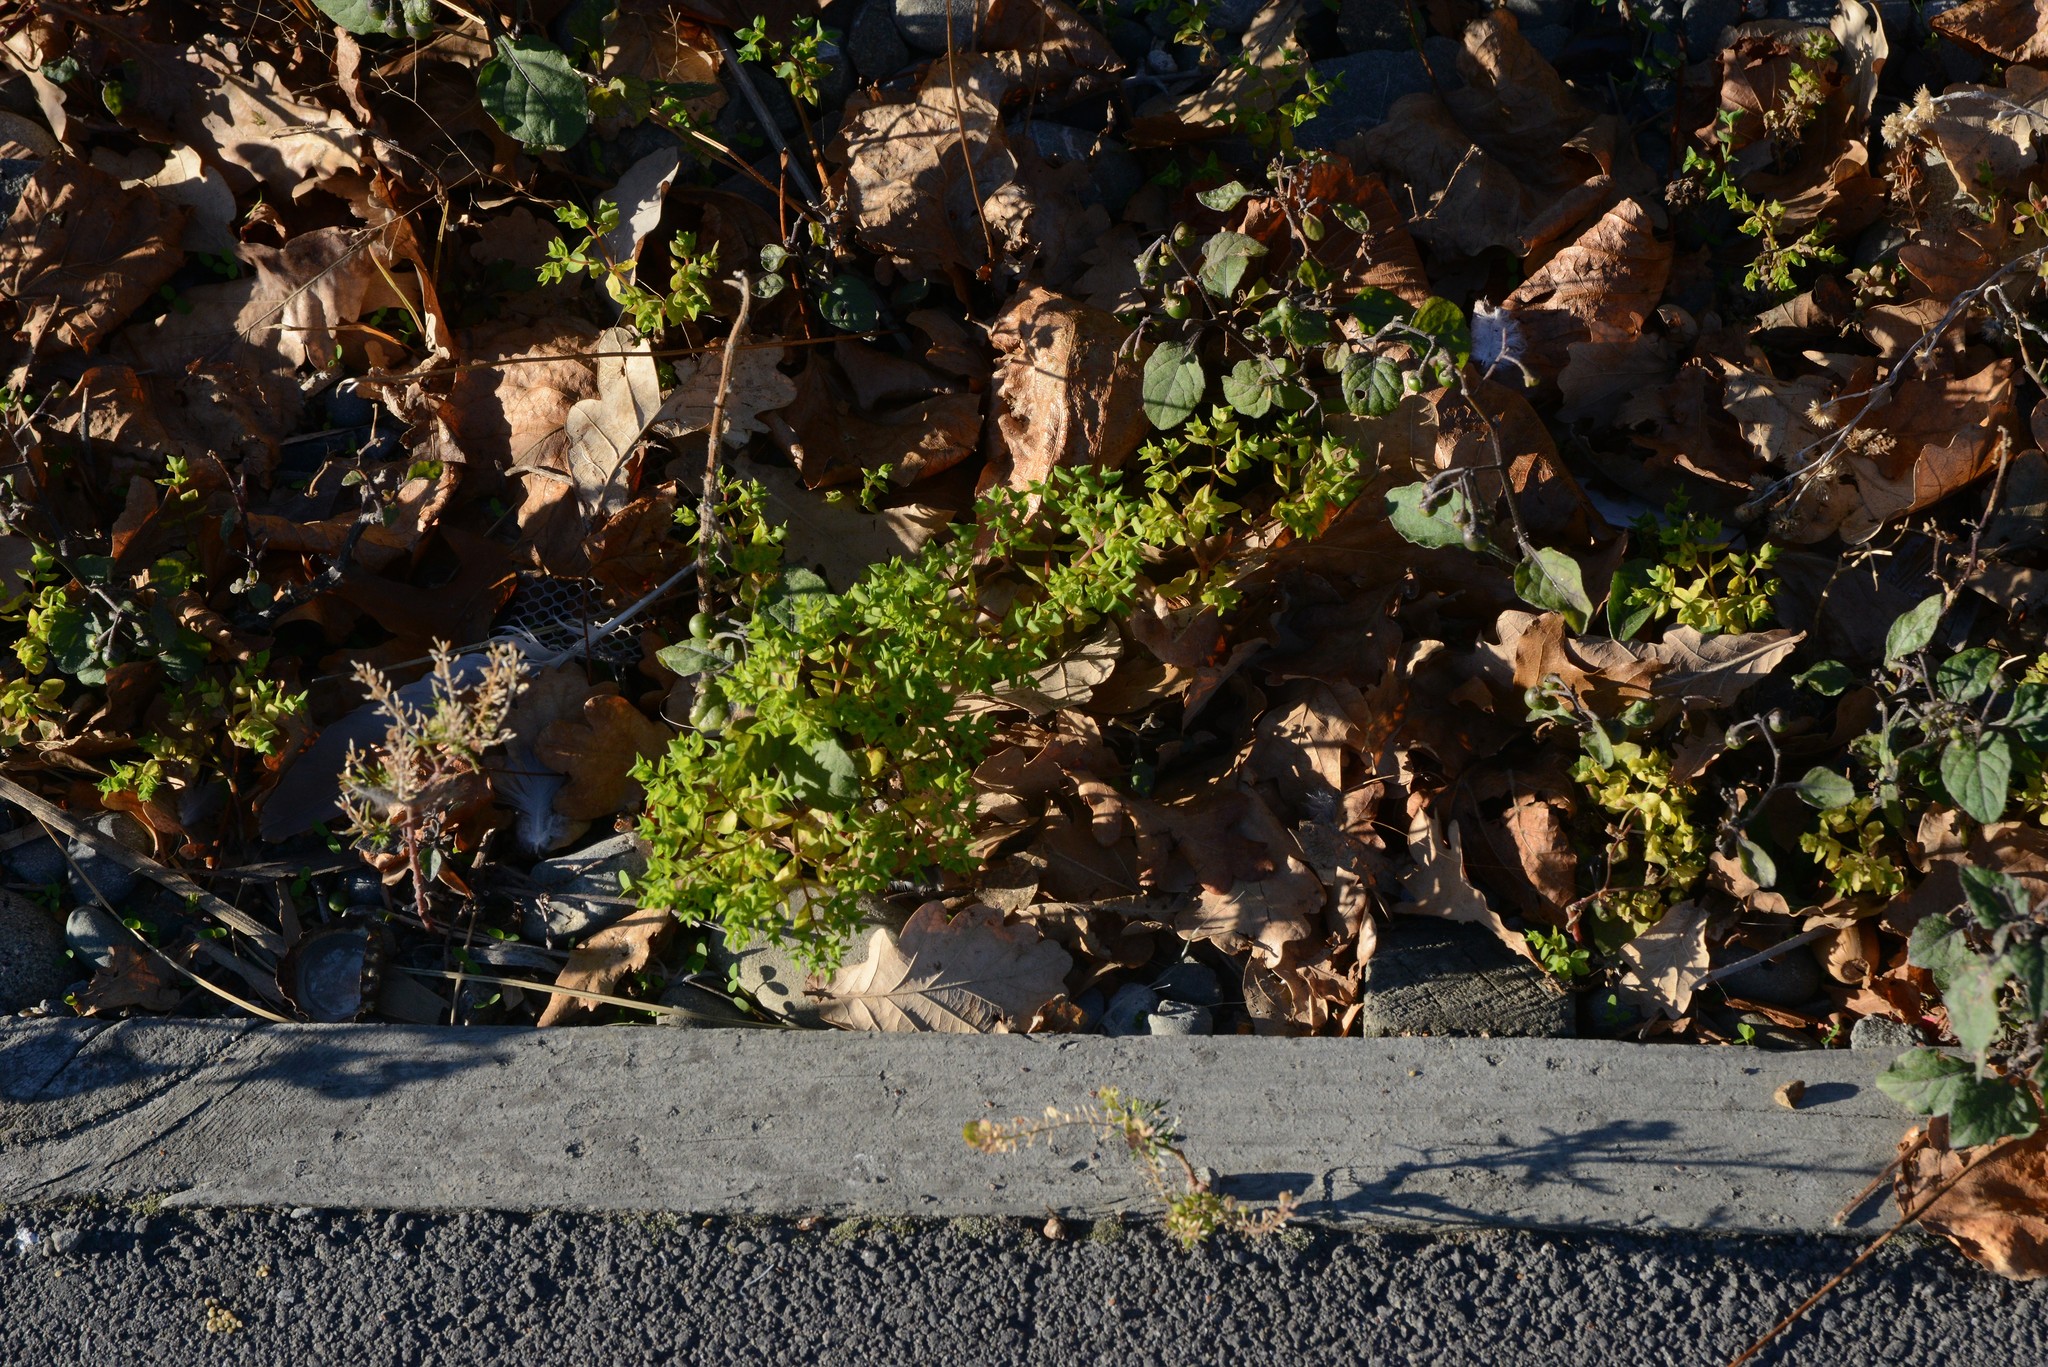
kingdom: Plantae
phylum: Tracheophyta
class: Magnoliopsida
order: Malpighiales
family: Euphorbiaceae
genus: Euphorbia
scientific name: Euphorbia peplus
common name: Petty spurge
